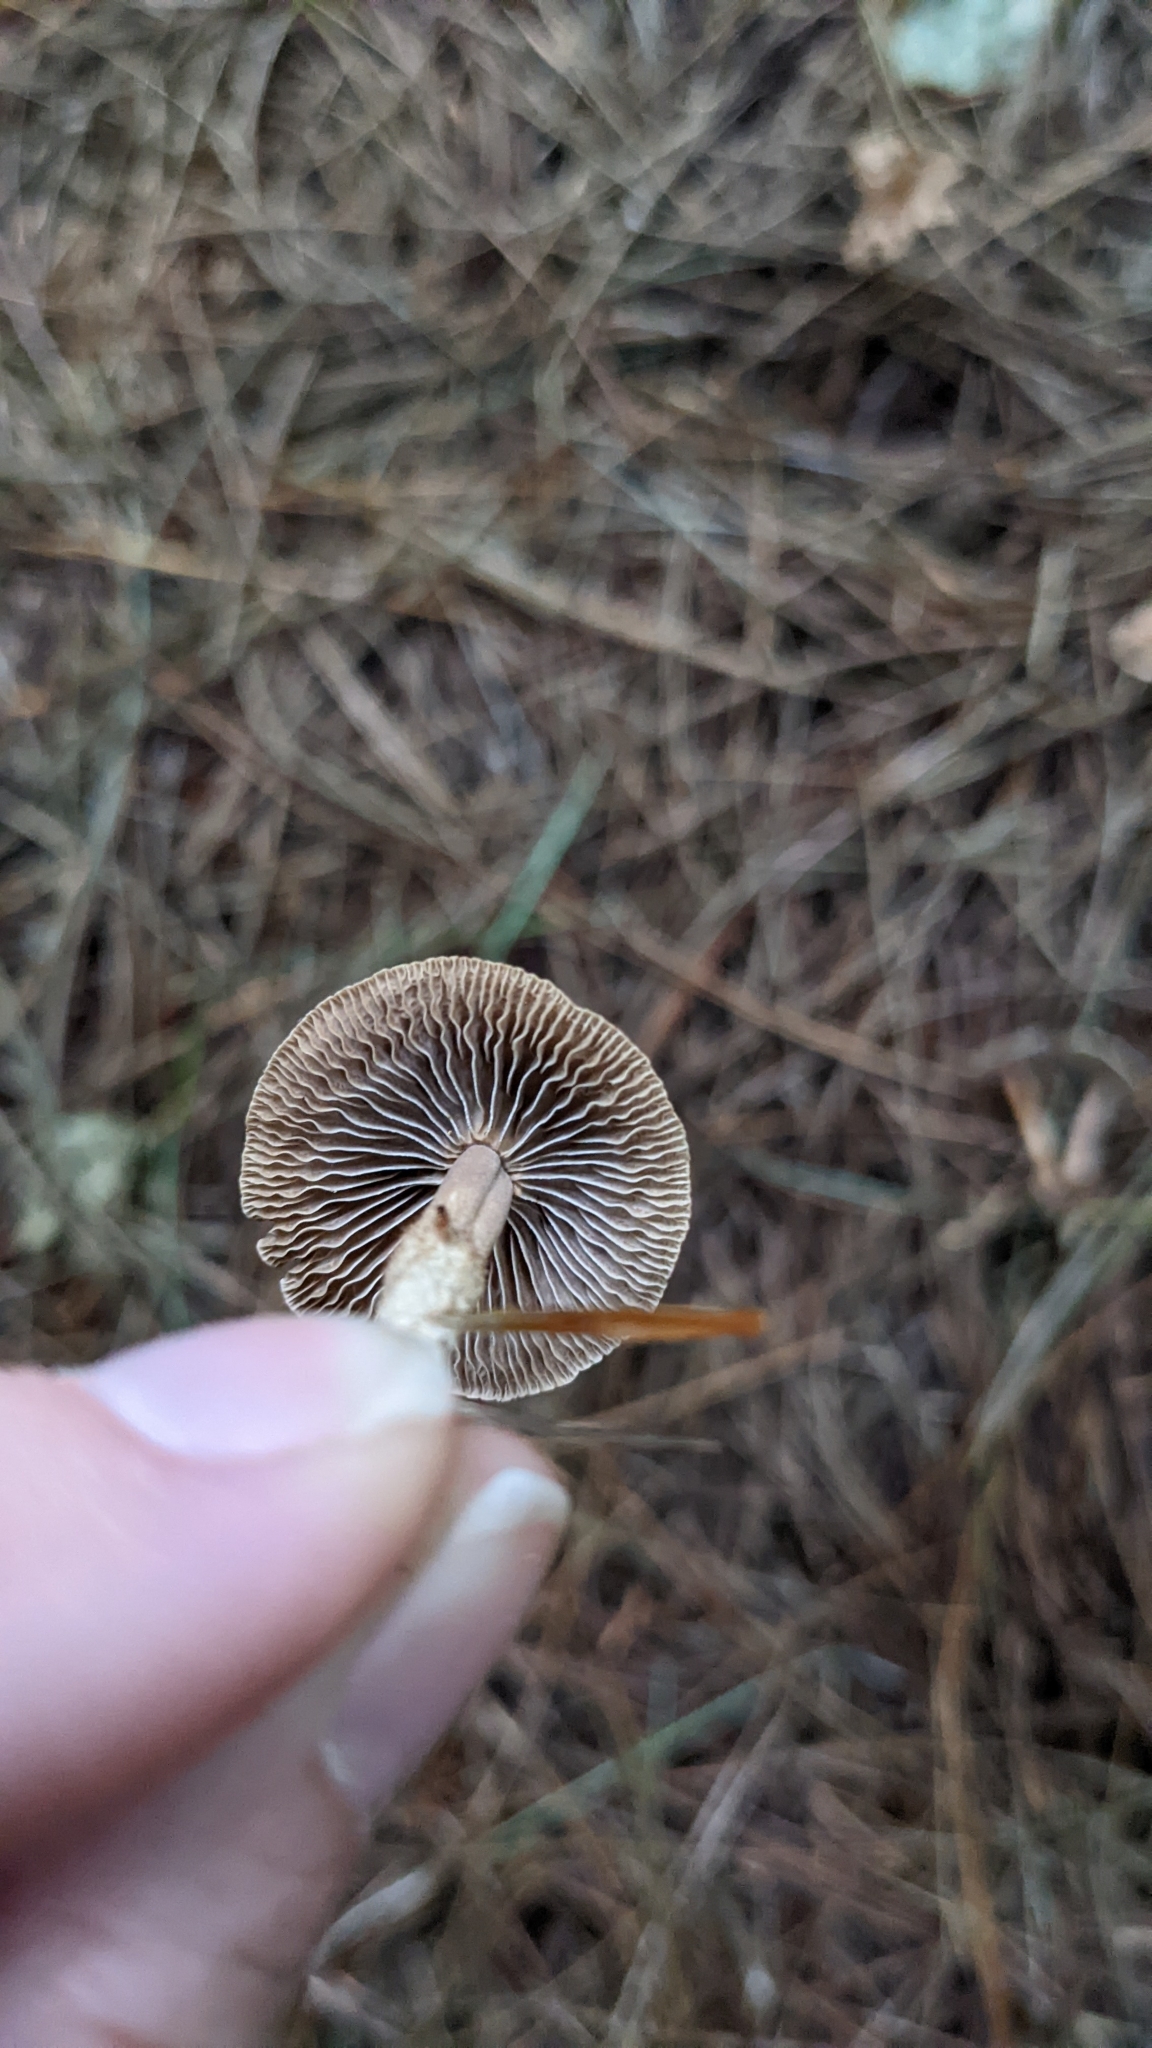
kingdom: Fungi
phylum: Basidiomycota
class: Agaricomycetes
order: Agaricales
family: Omphalotaceae
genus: Gymnopus
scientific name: Gymnopus iocephalus
